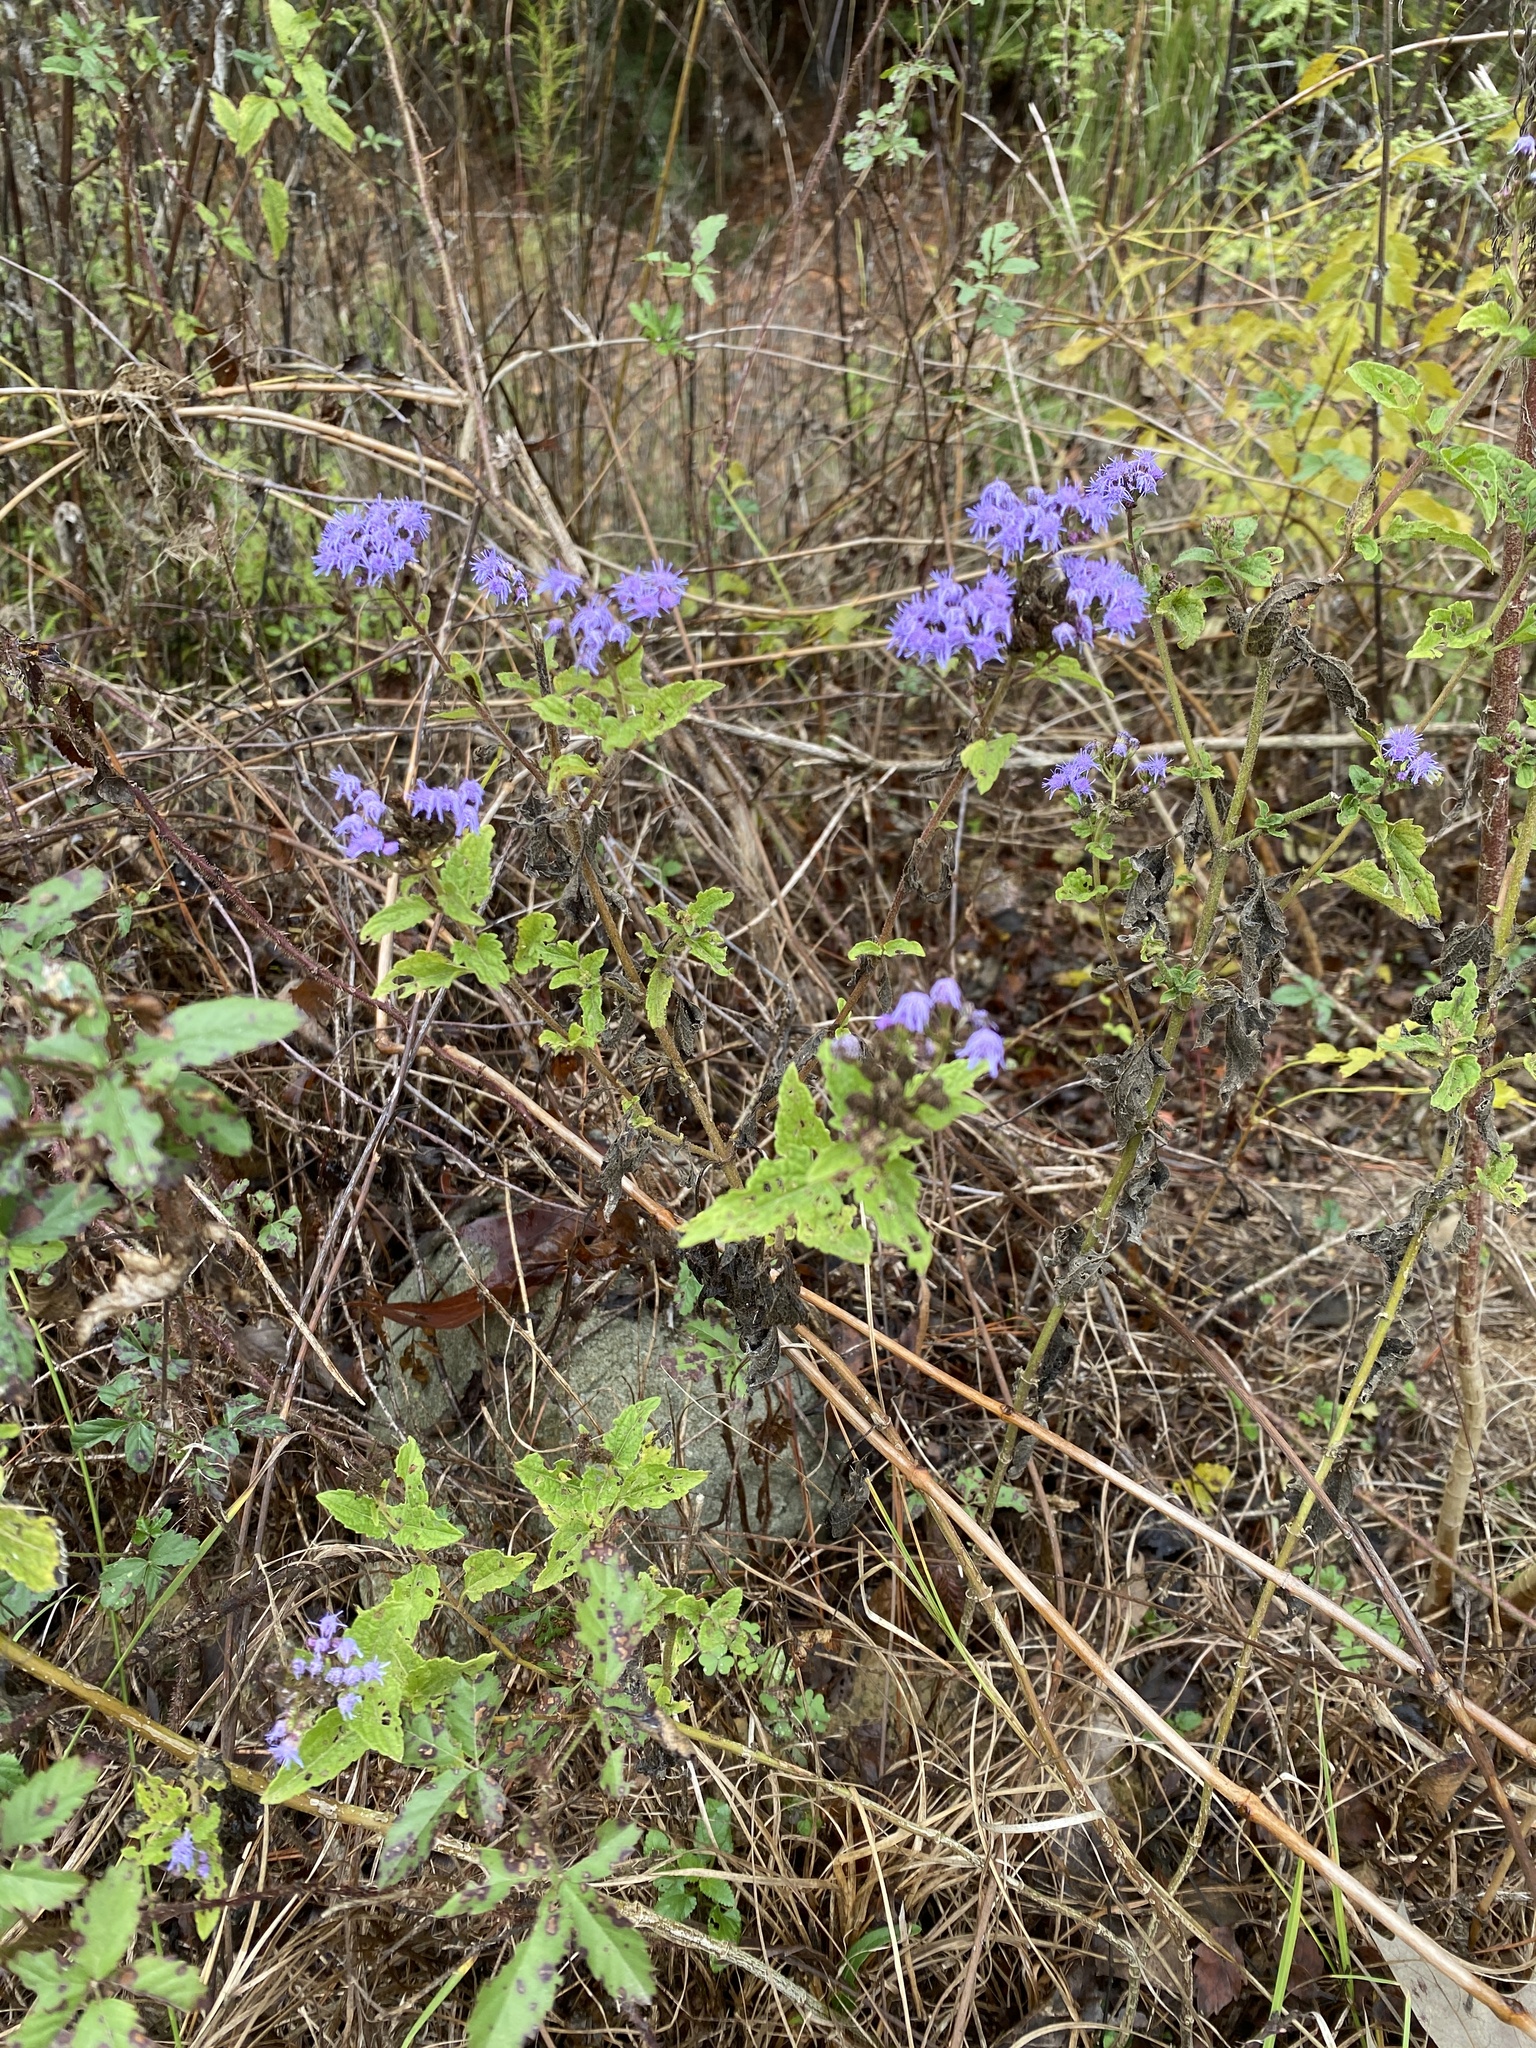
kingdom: Plantae
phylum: Tracheophyta
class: Magnoliopsida
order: Asterales
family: Asteraceae
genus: Conoclinium
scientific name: Conoclinium coelestinum
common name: Blue mistflower
